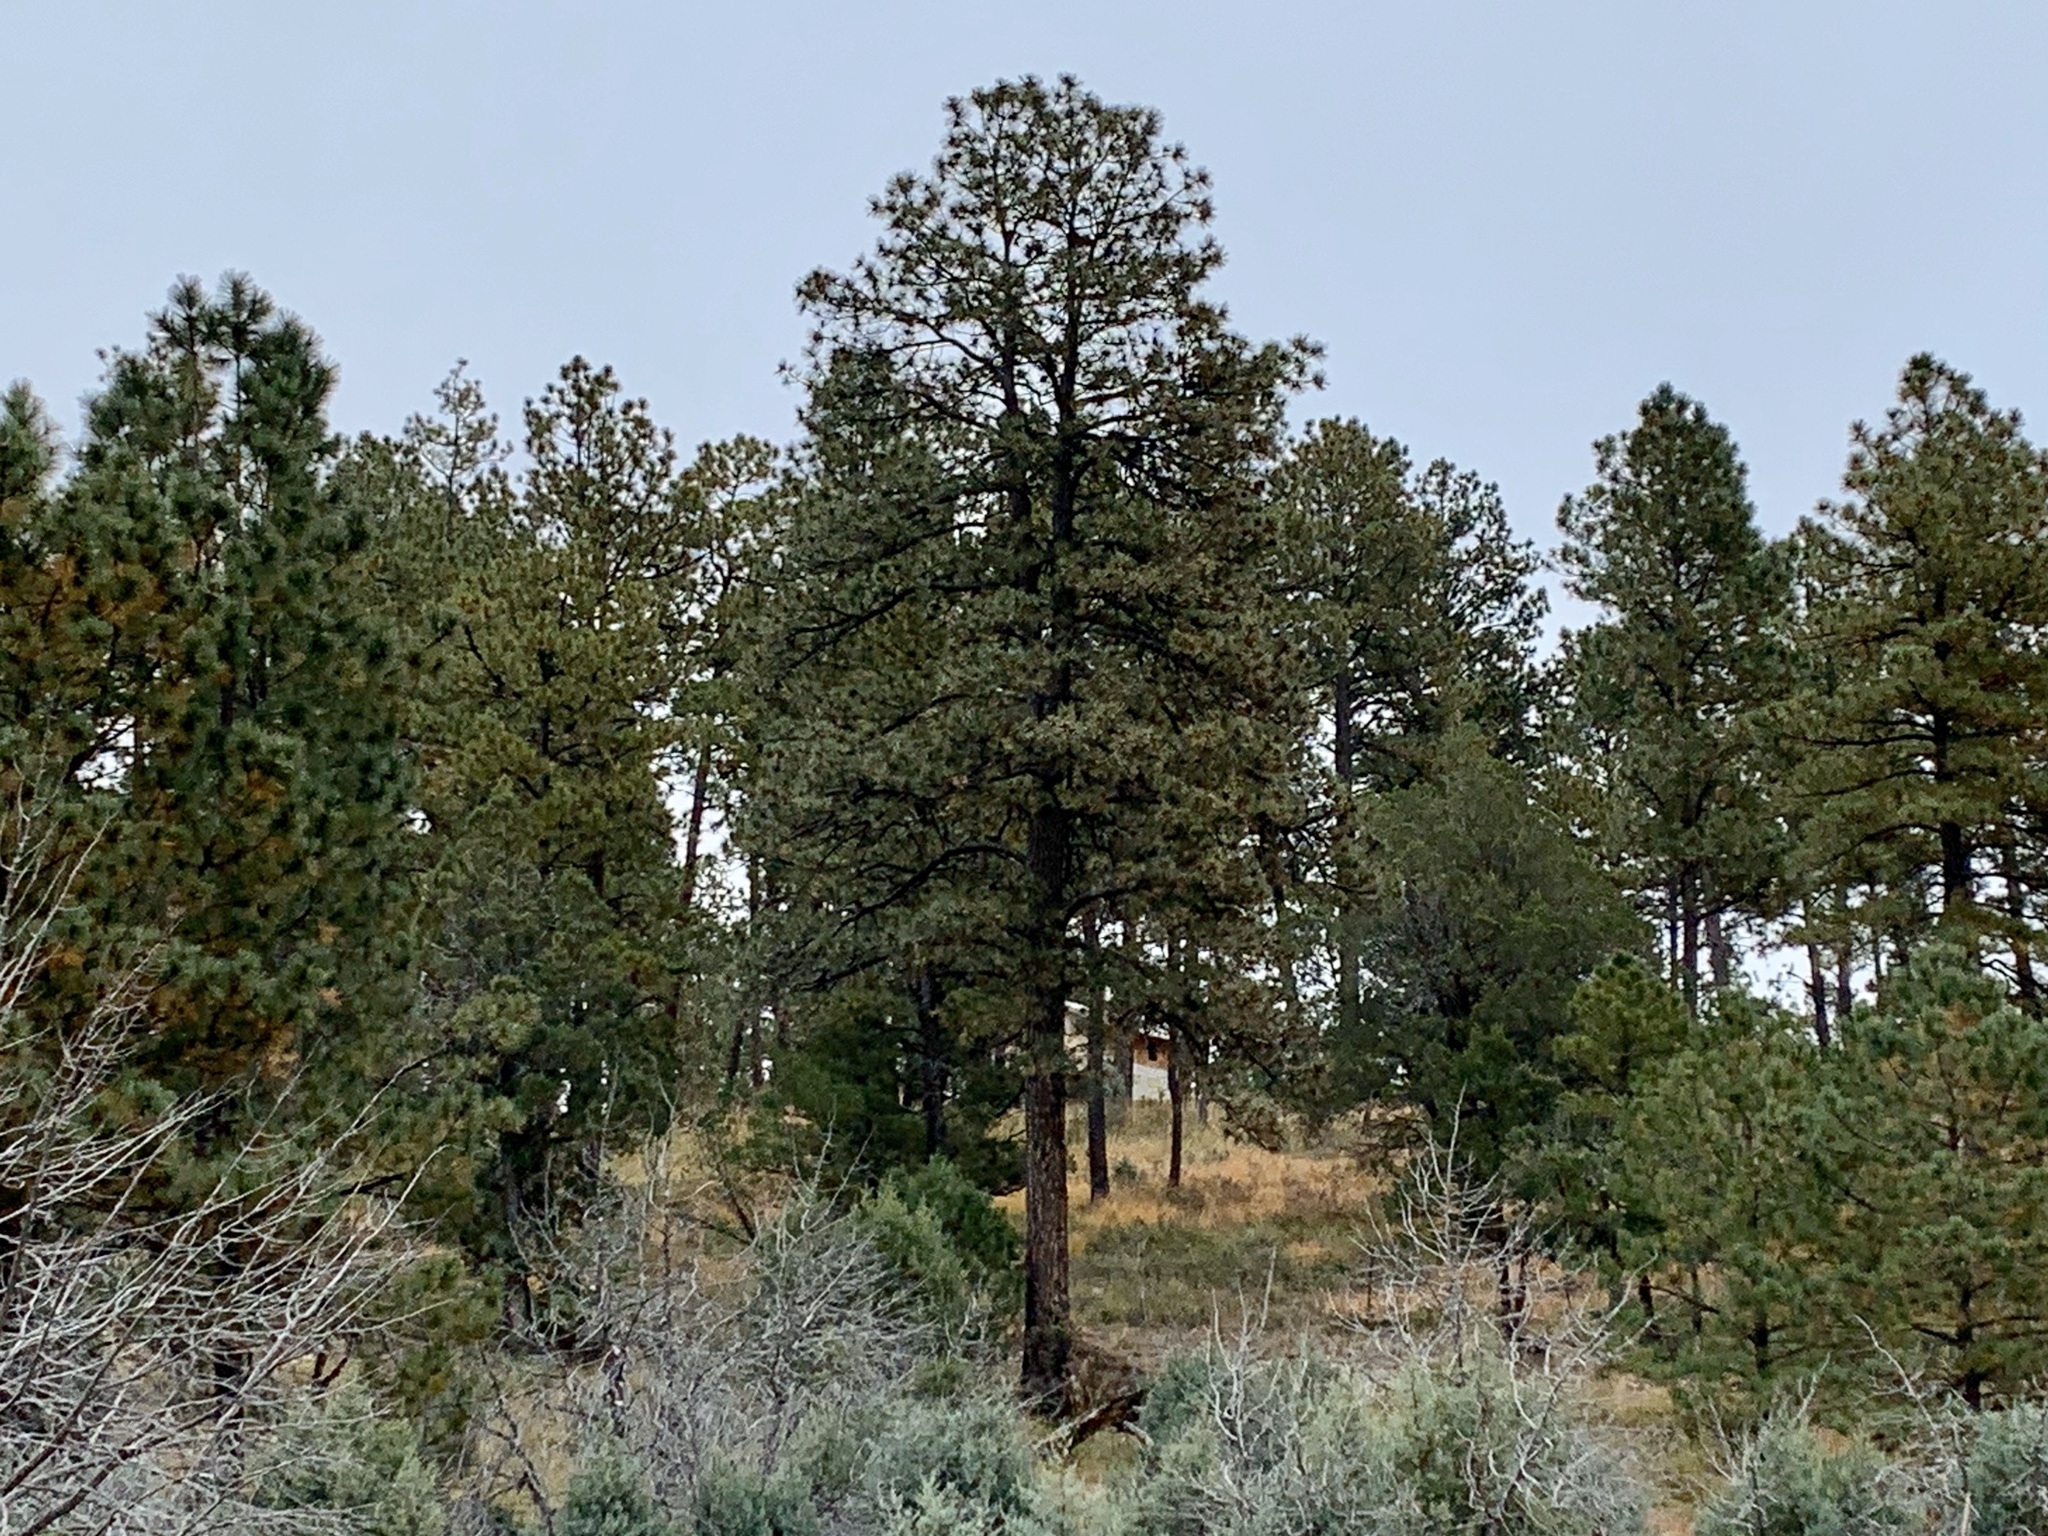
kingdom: Plantae
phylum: Tracheophyta
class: Pinopsida
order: Pinales
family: Pinaceae
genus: Pinus
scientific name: Pinus ponderosa
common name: Western yellow-pine
